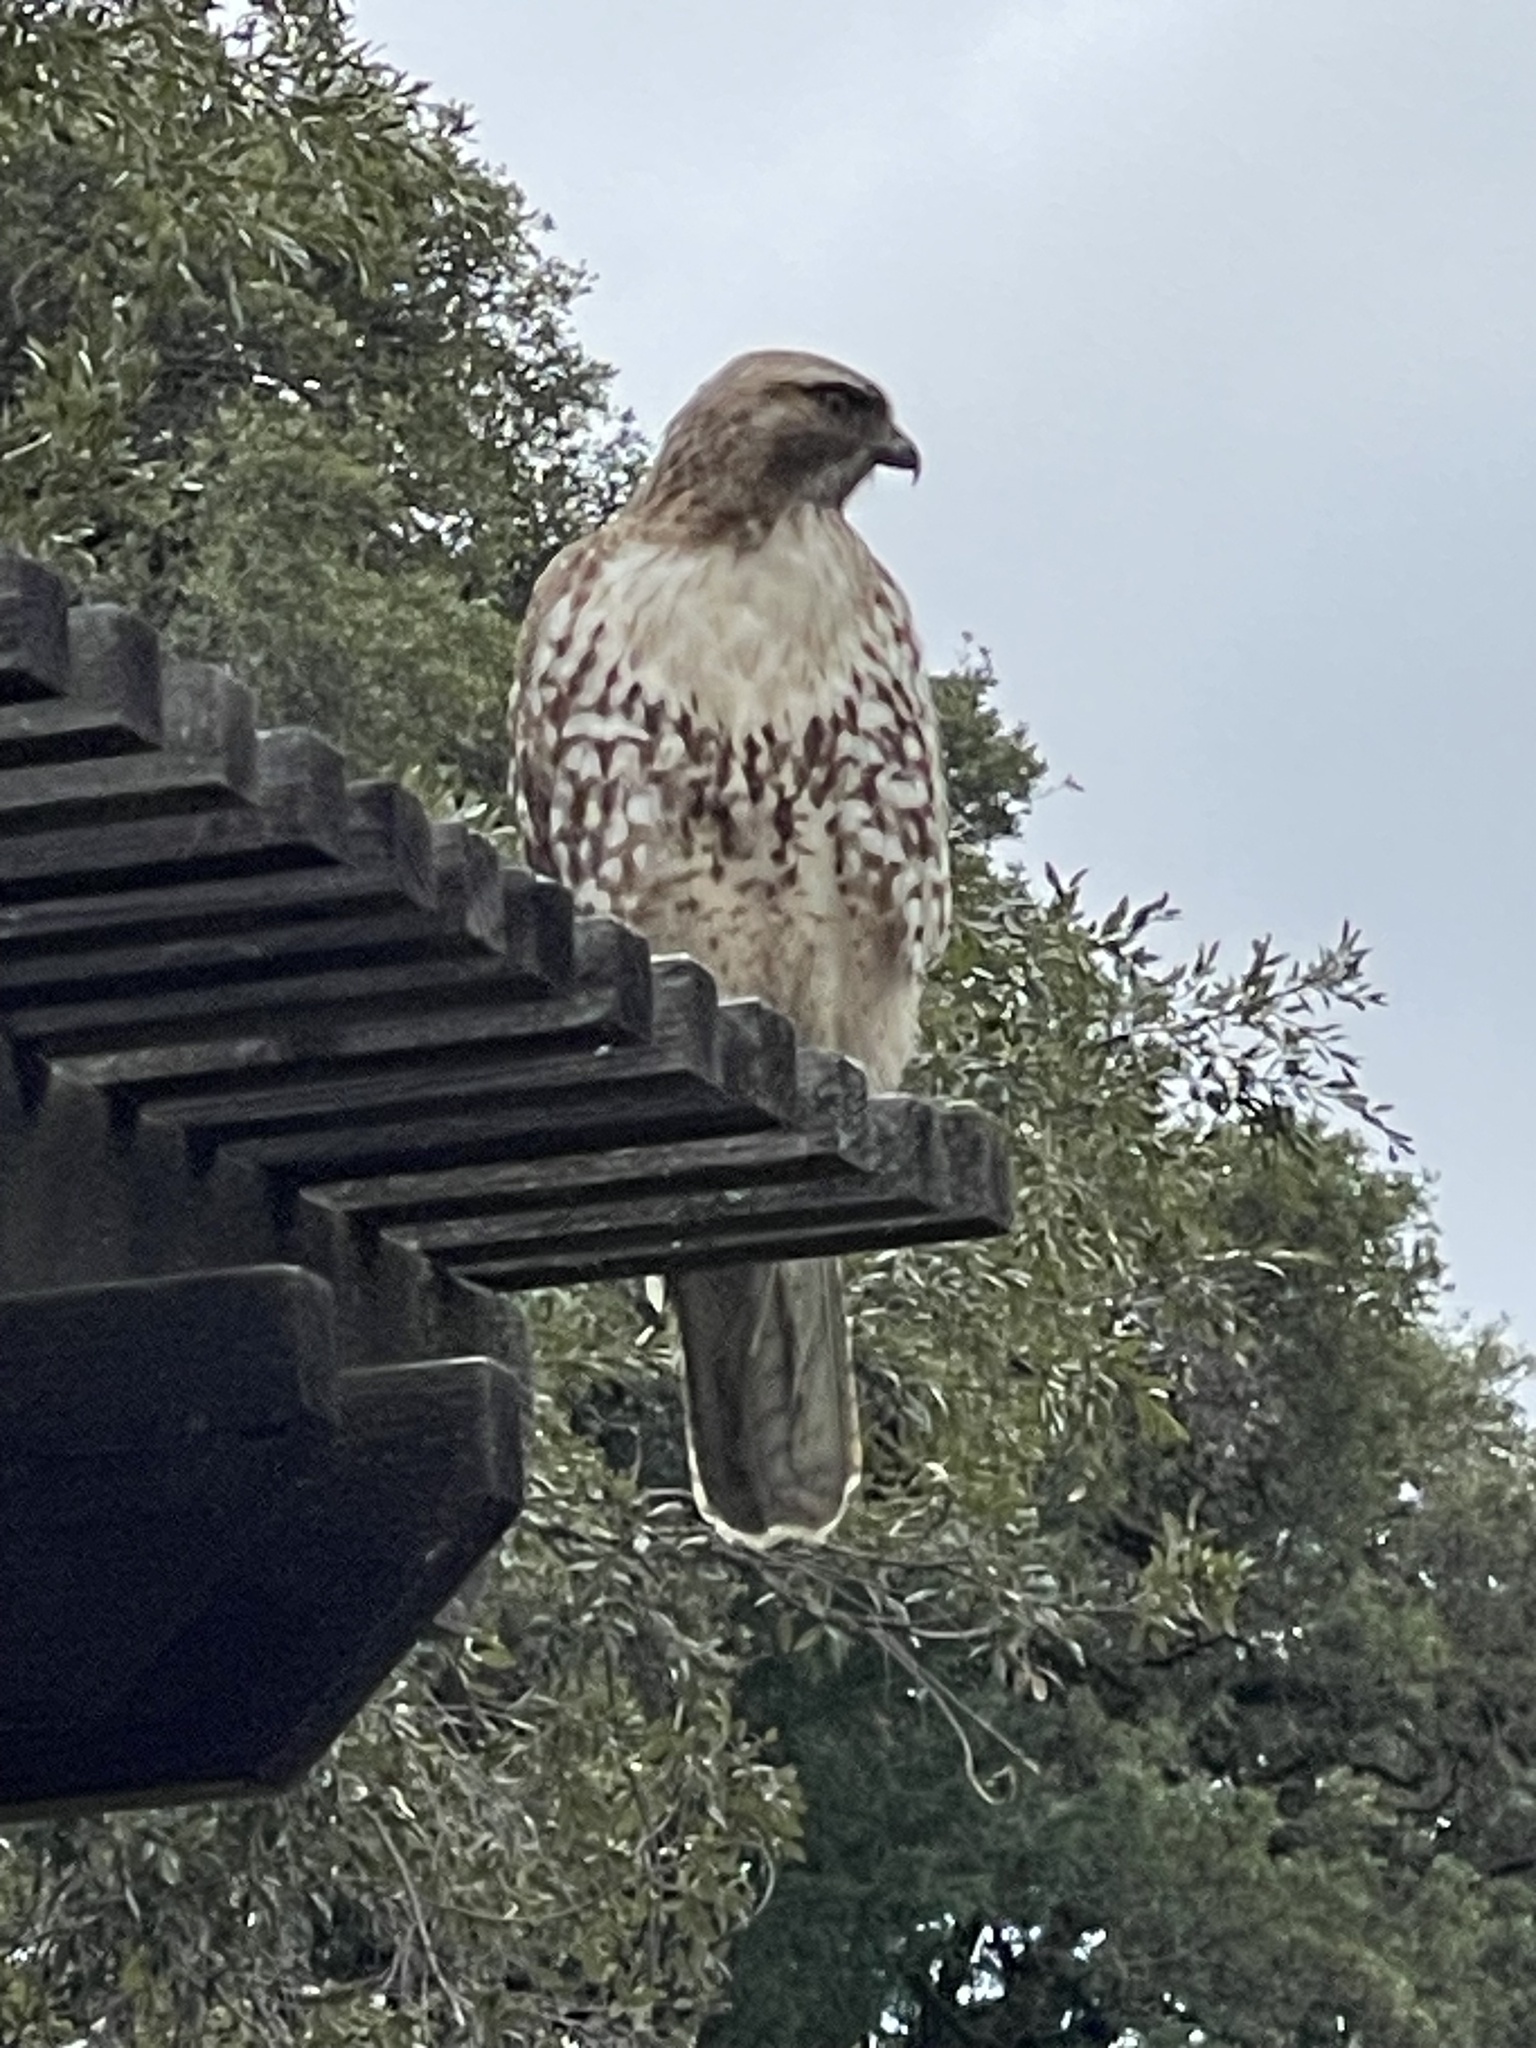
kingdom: Animalia
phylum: Chordata
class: Aves
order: Accipitriformes
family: Accipitridae
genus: Buteo
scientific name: Buteo jamaicensis
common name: Red-tailed hawk
